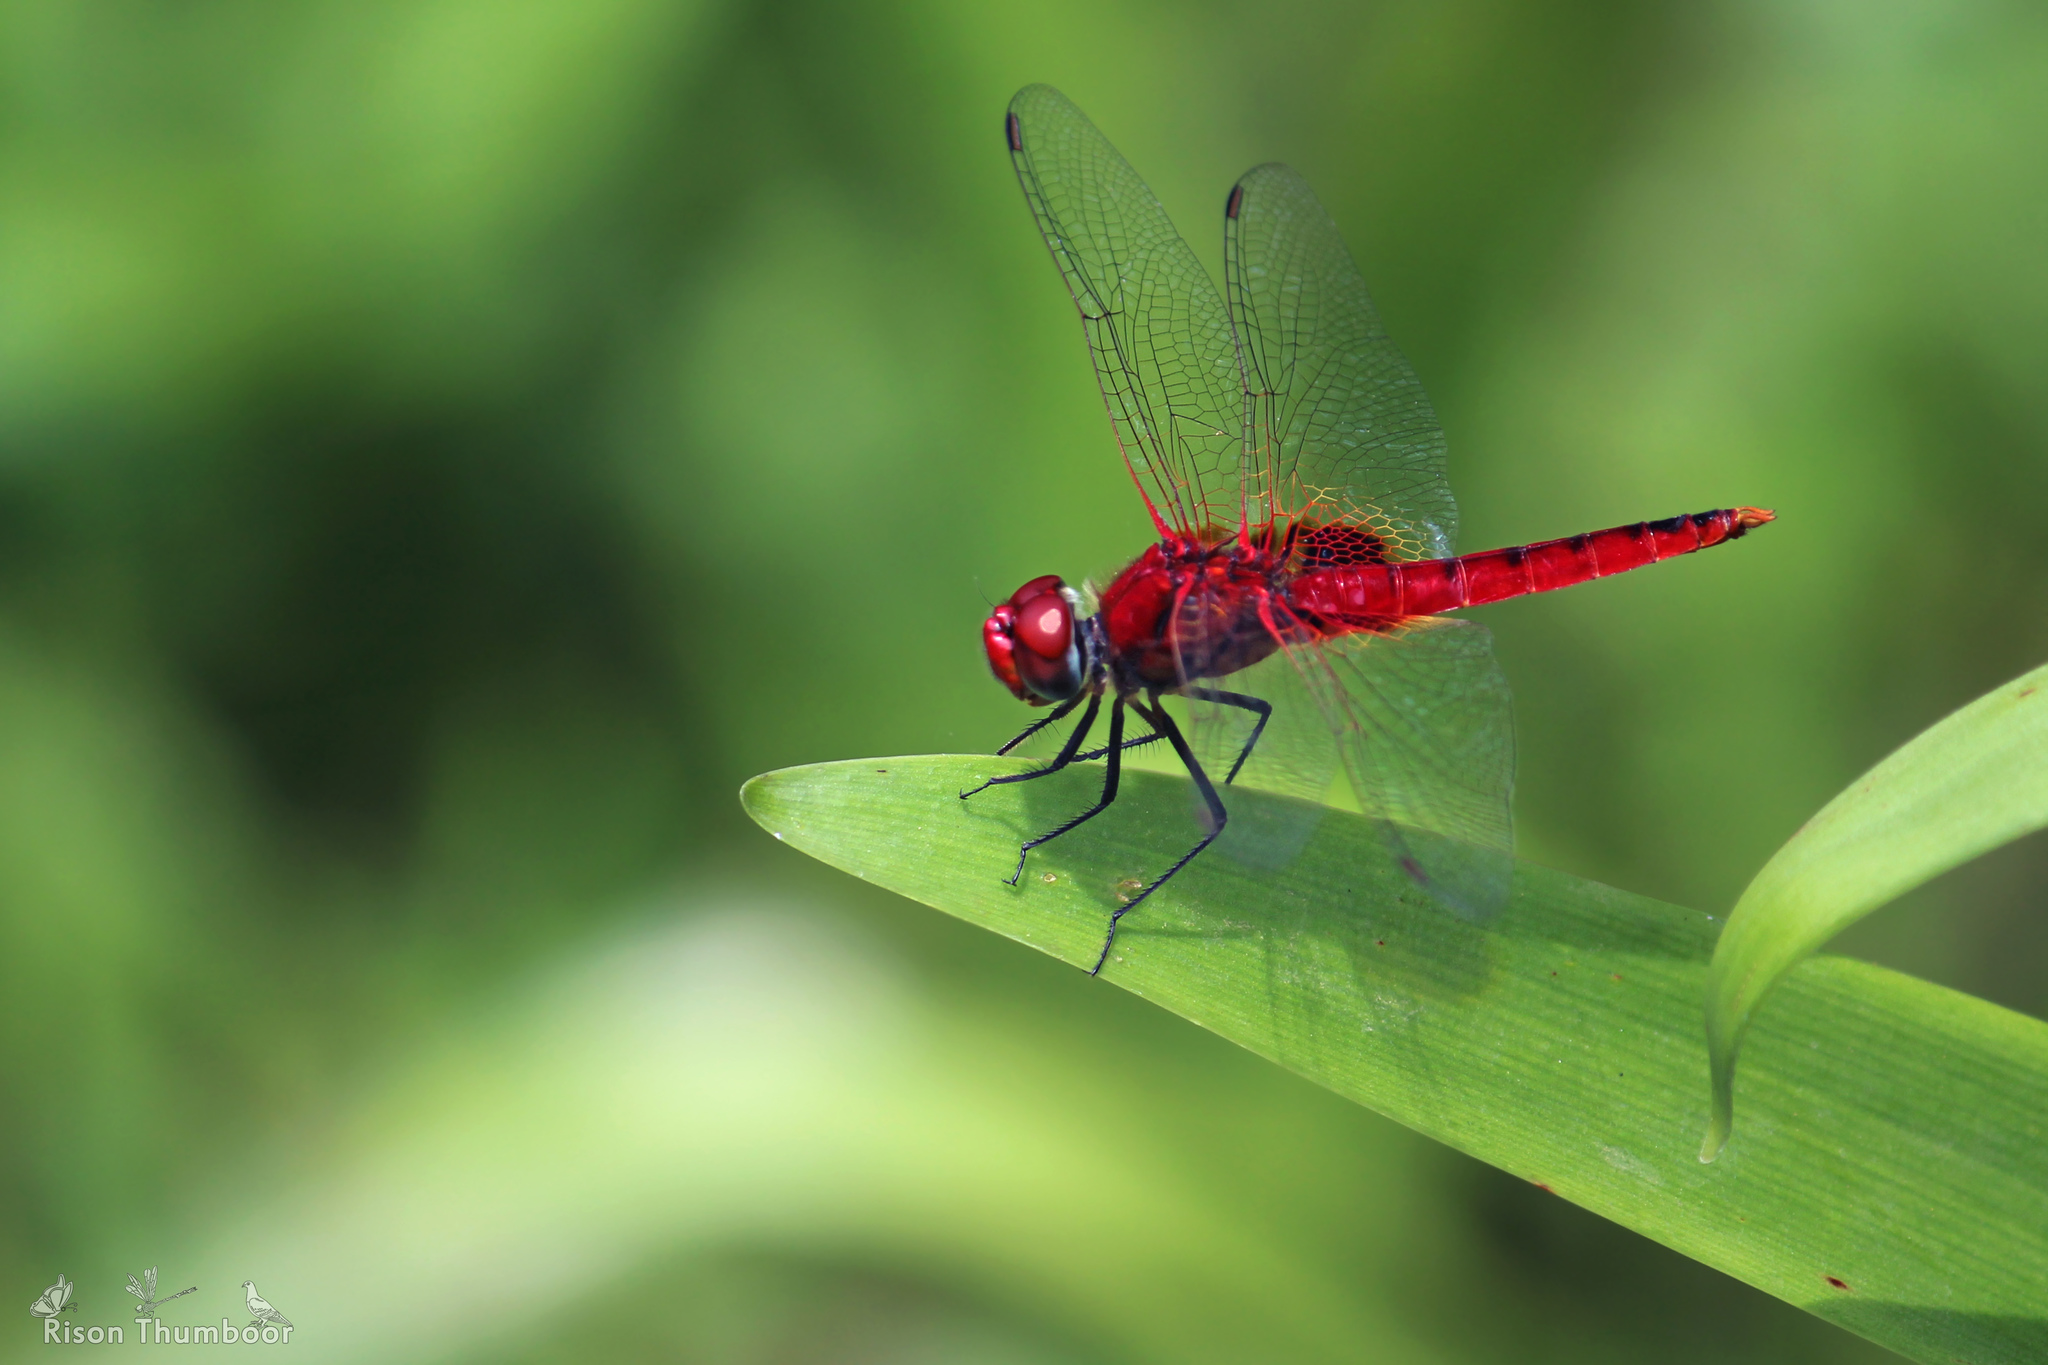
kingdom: Animalia
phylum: Arthropoda
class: Insecta
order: Odonata
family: Libellulidae
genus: Urothemis
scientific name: Urothemis signata
